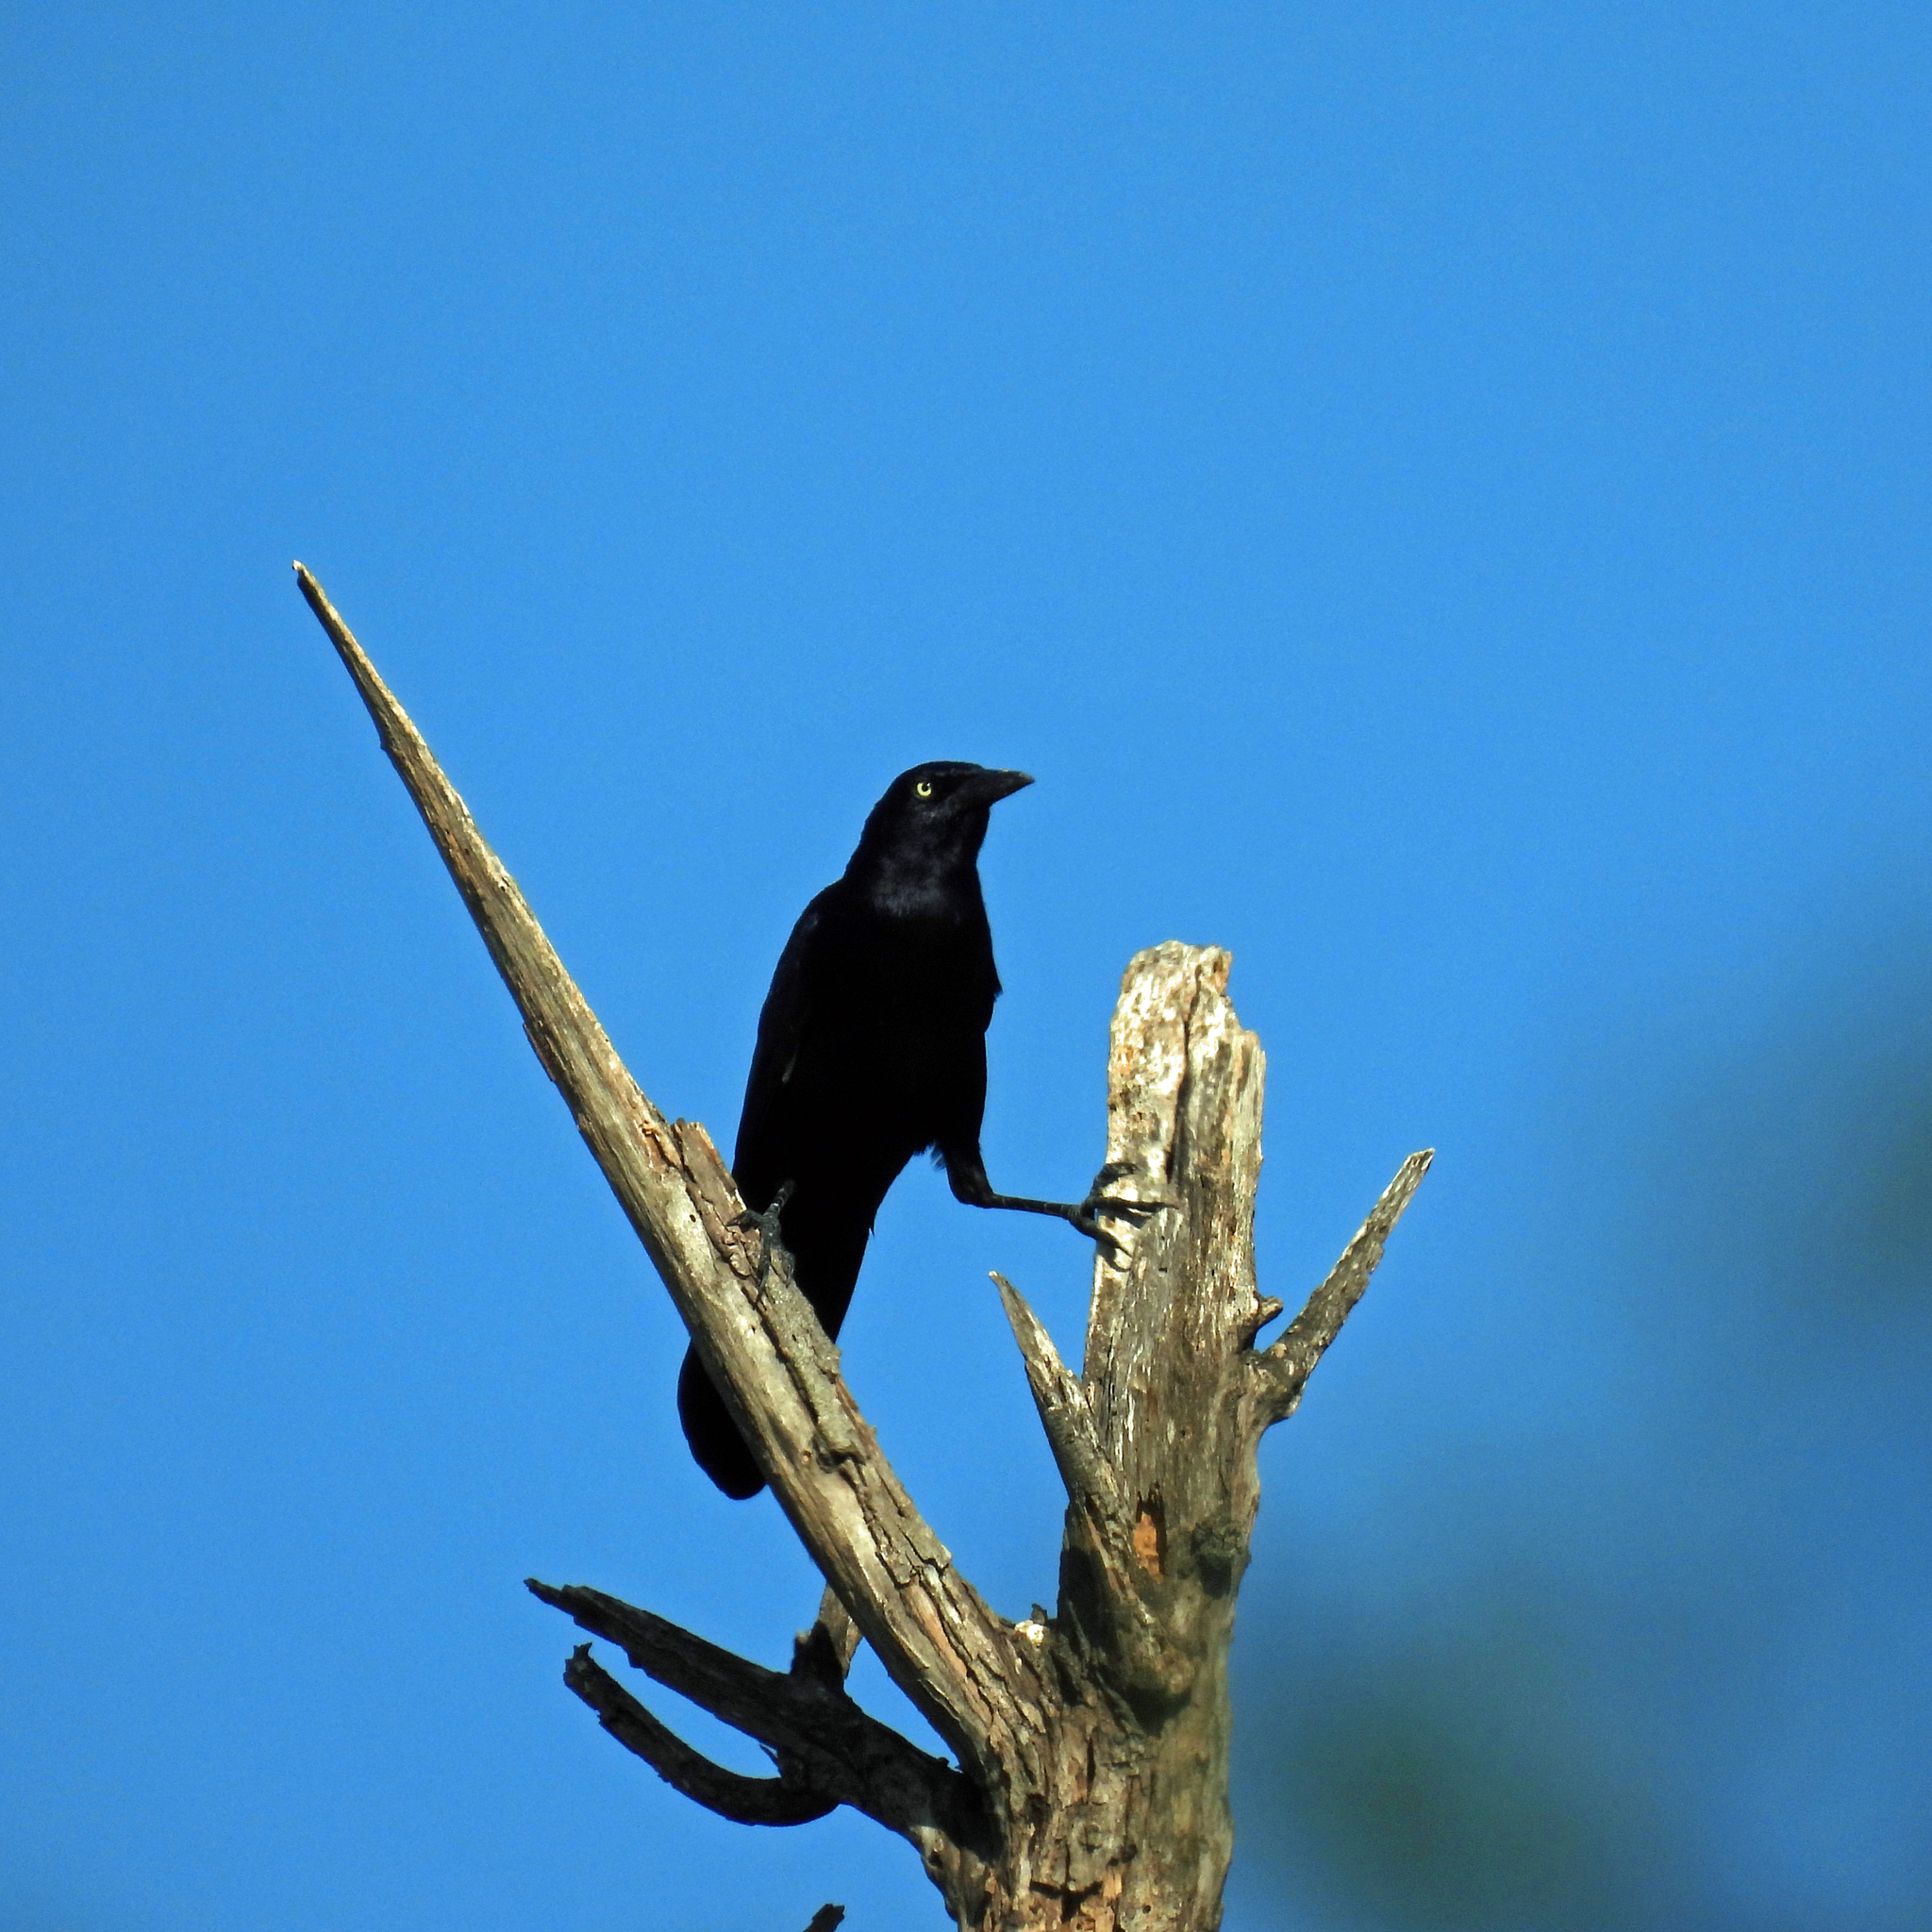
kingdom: Animalia
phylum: Chordata
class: Aves
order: Passeriformes
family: Icteridae
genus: Quiscalus
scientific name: Quiscalus mexicanus
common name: Great-tailed grackle
